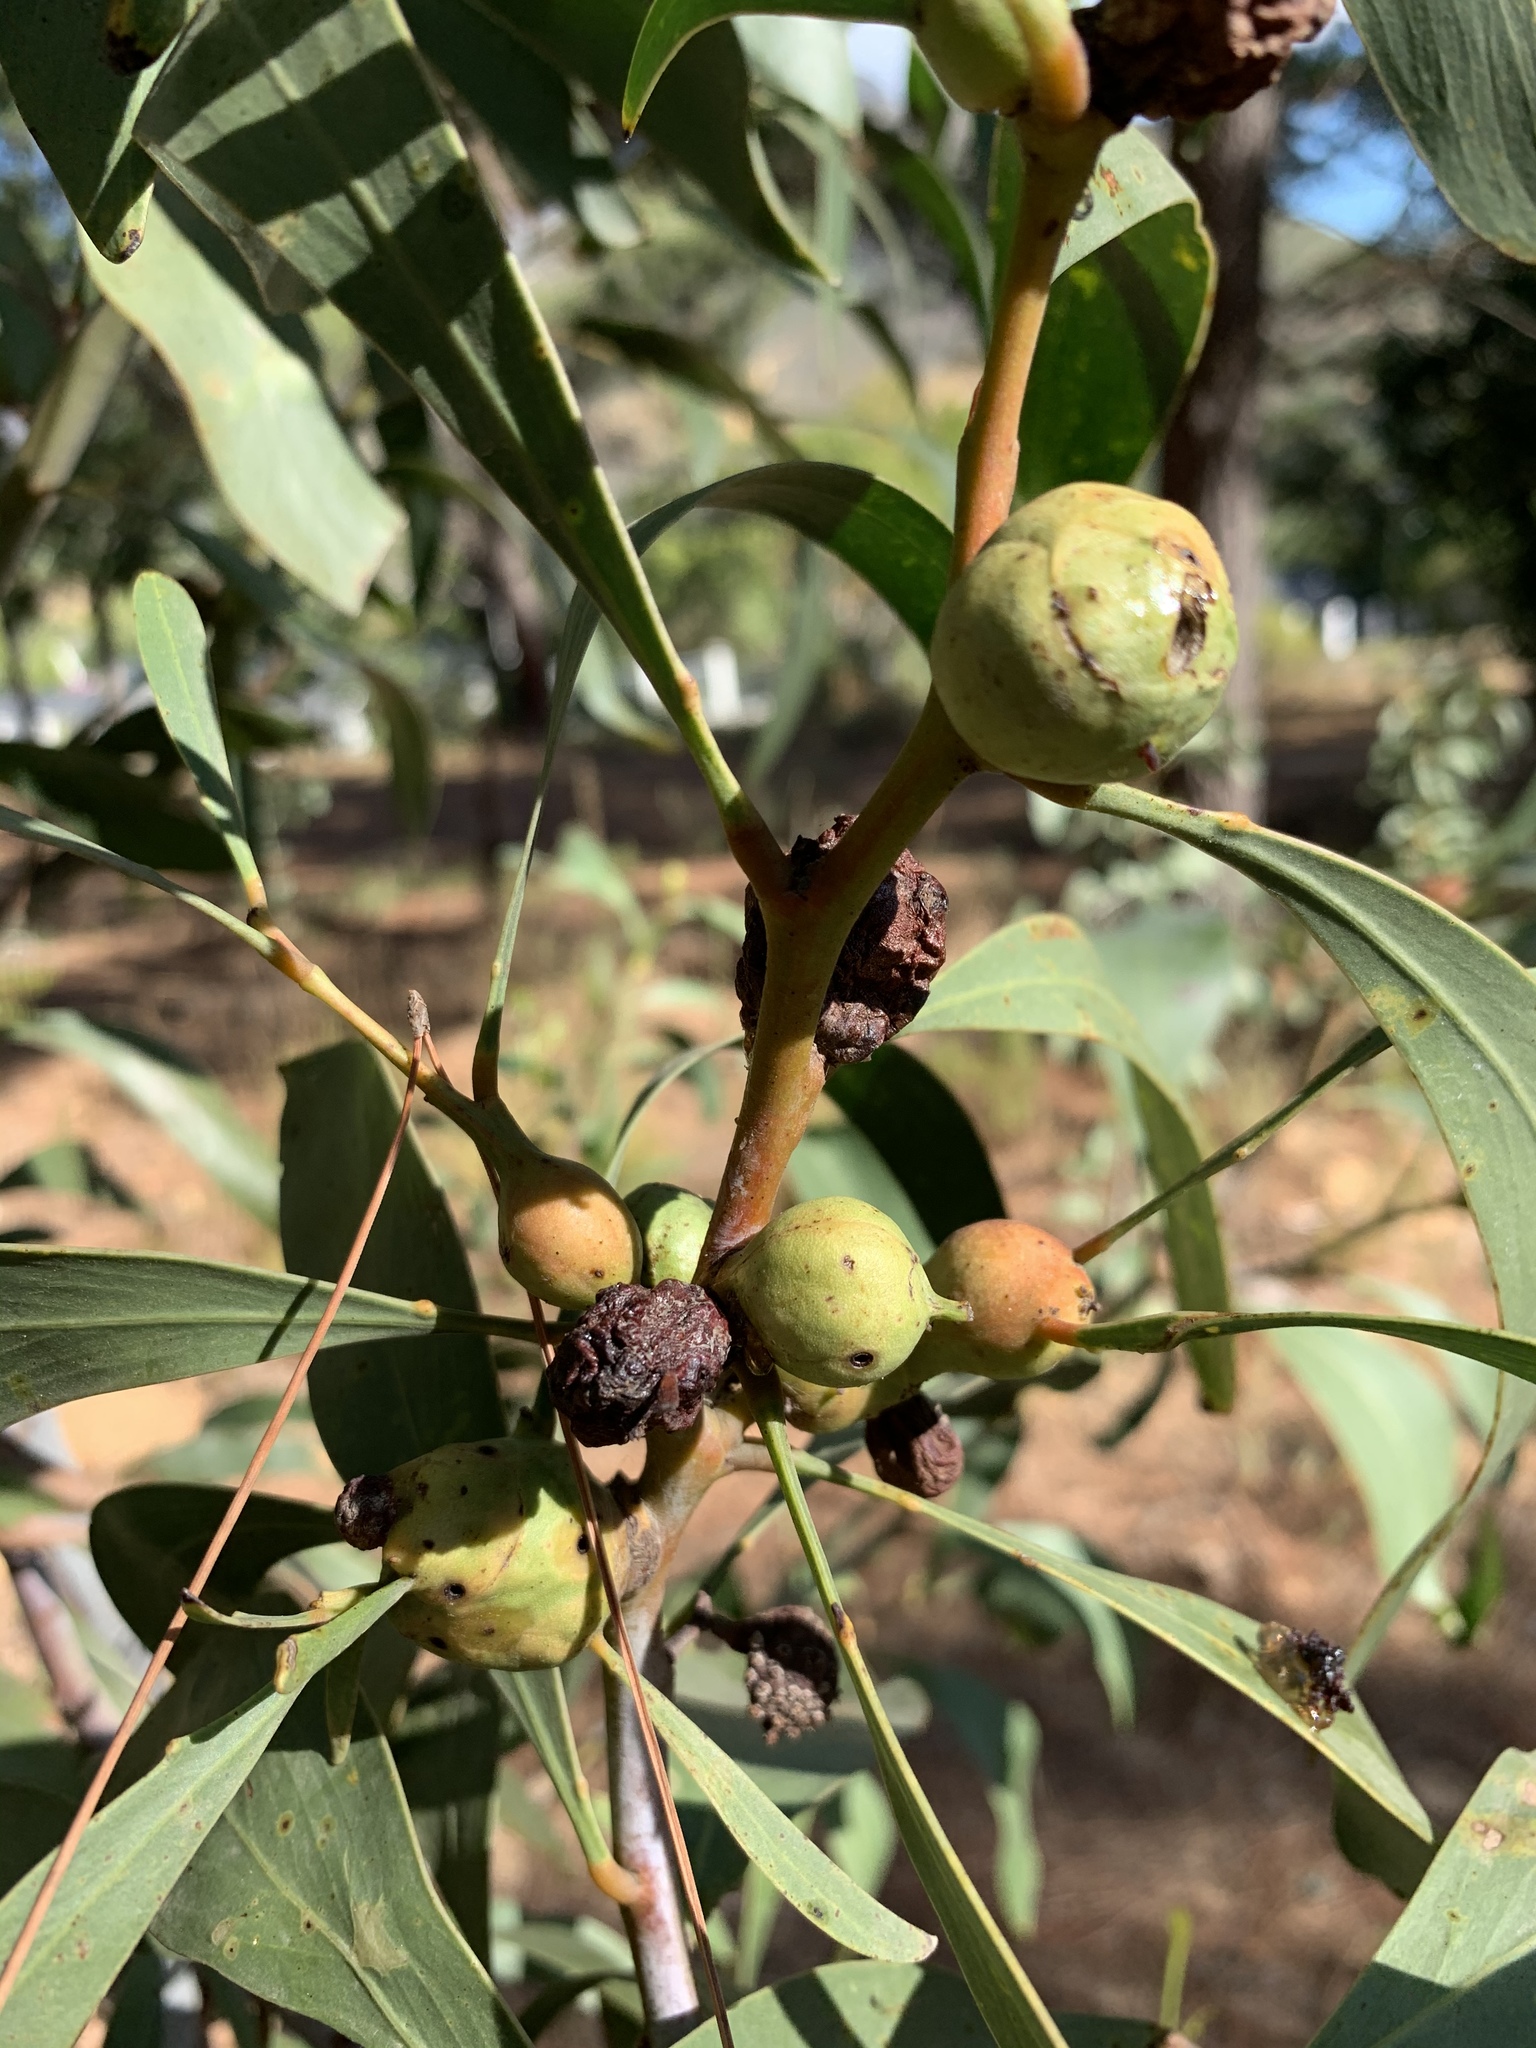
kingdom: Animalia
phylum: Arthropoda
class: Insecta
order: Hymenoptera
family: Pteromalidae
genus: Trichilogaster
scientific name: Trichilogaster signiventris
